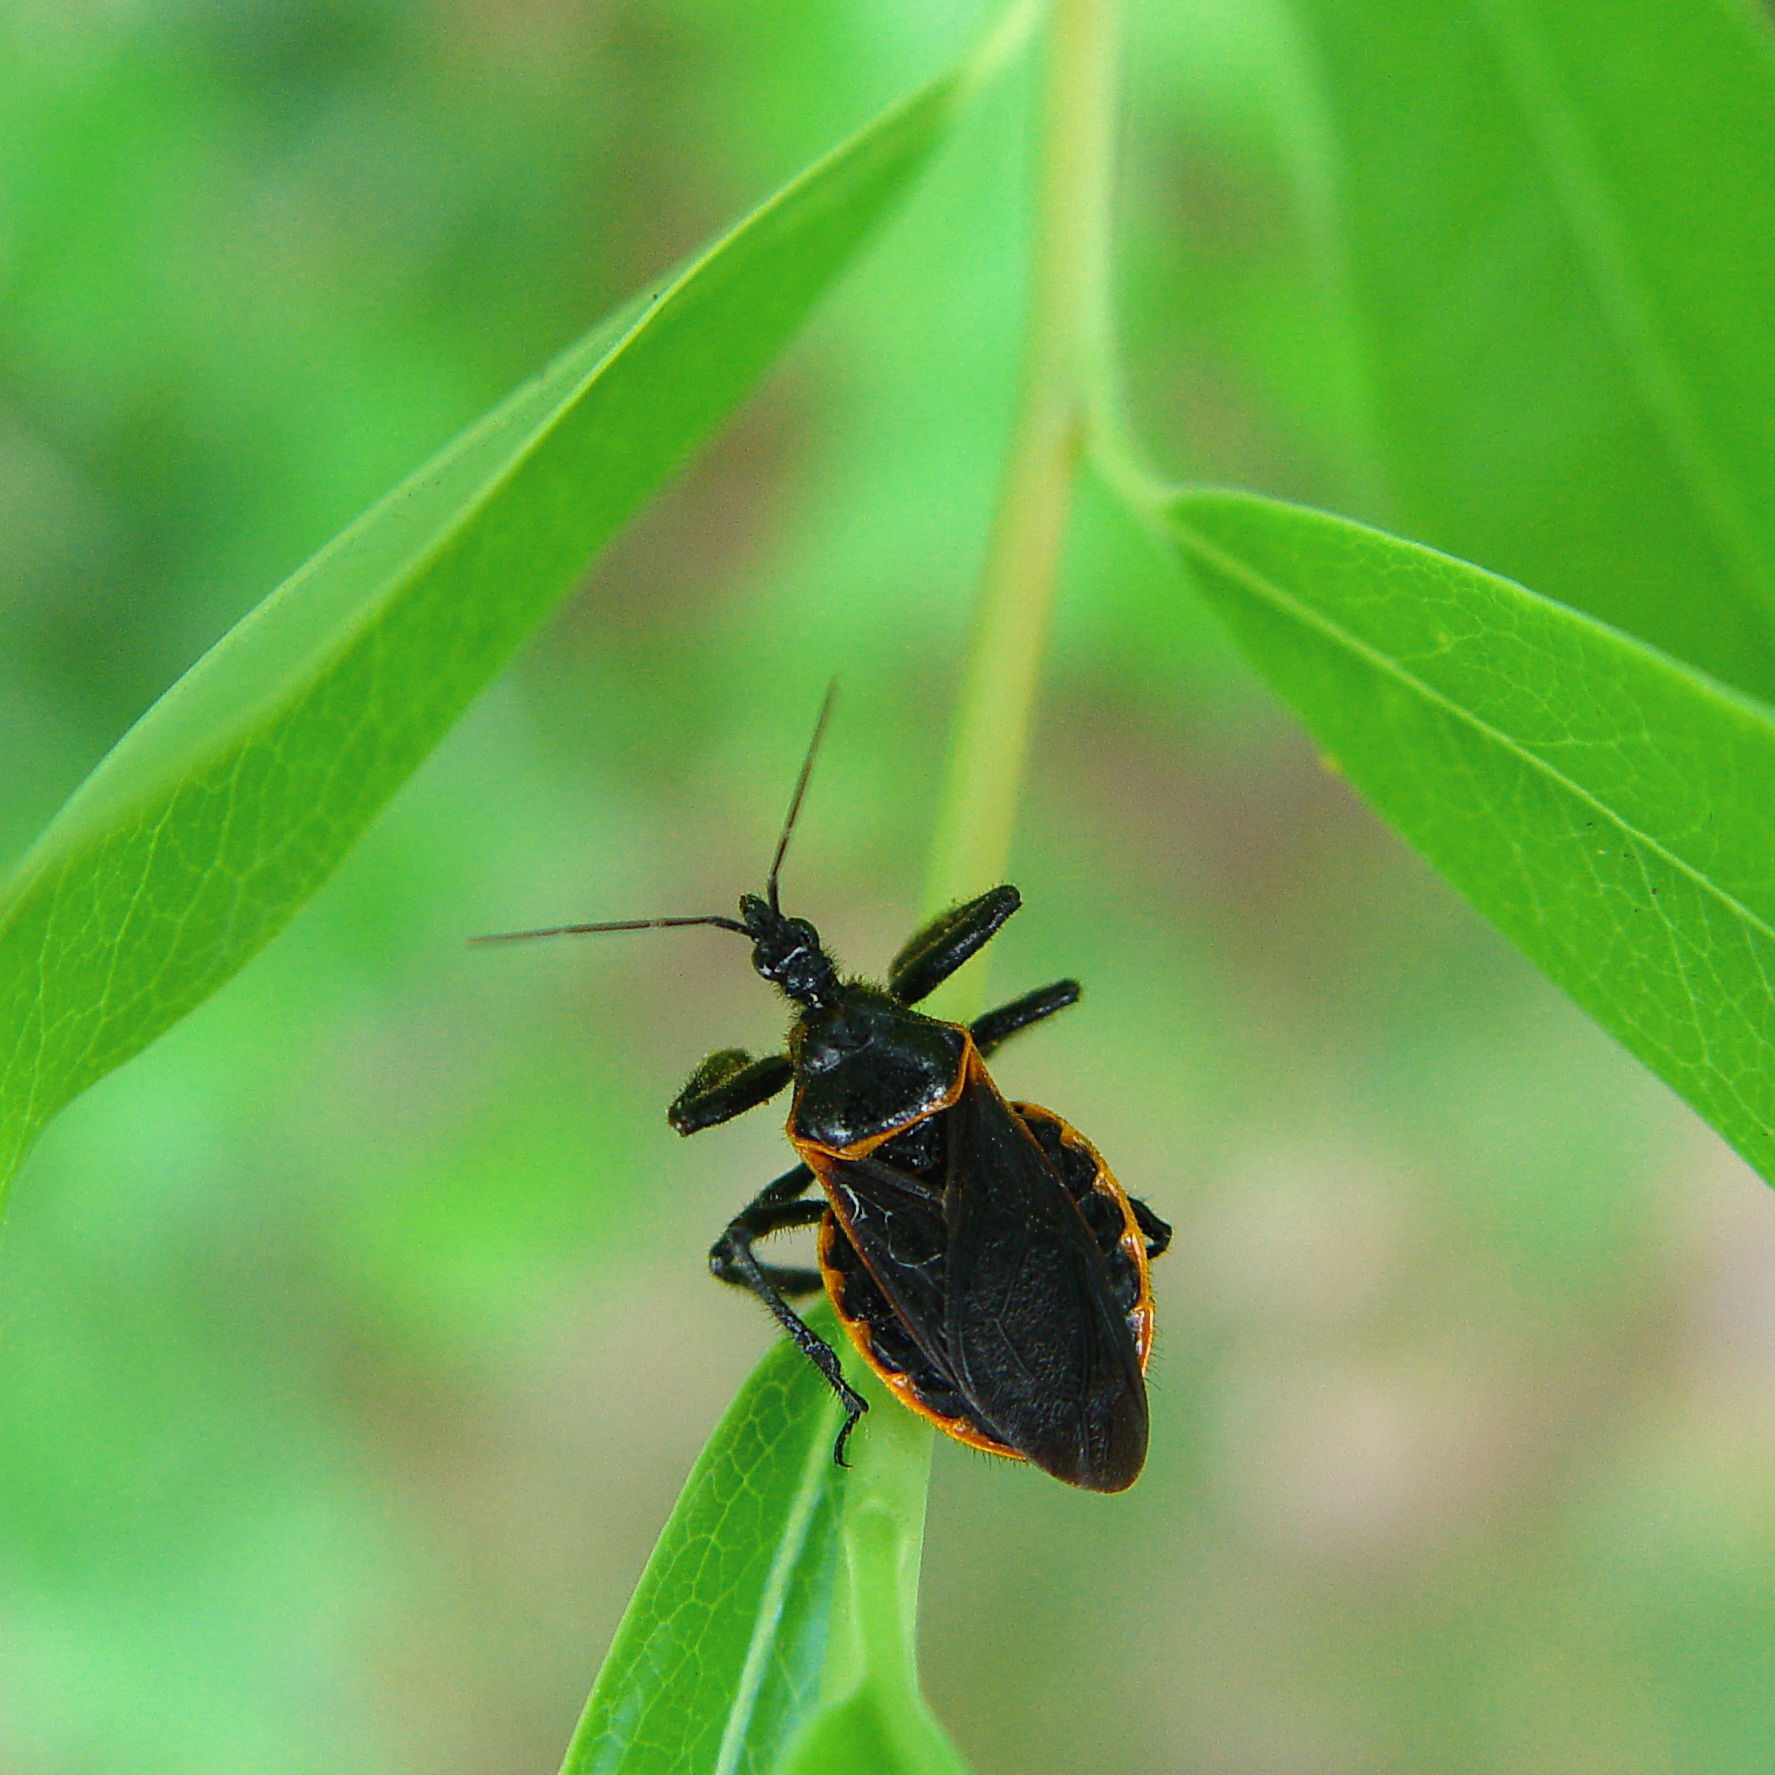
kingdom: Animalia
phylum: Arthropoda
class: Insecta
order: Hemiptera
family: Reduviidae
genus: Apiomerus
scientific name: Apiomerus crassipes
